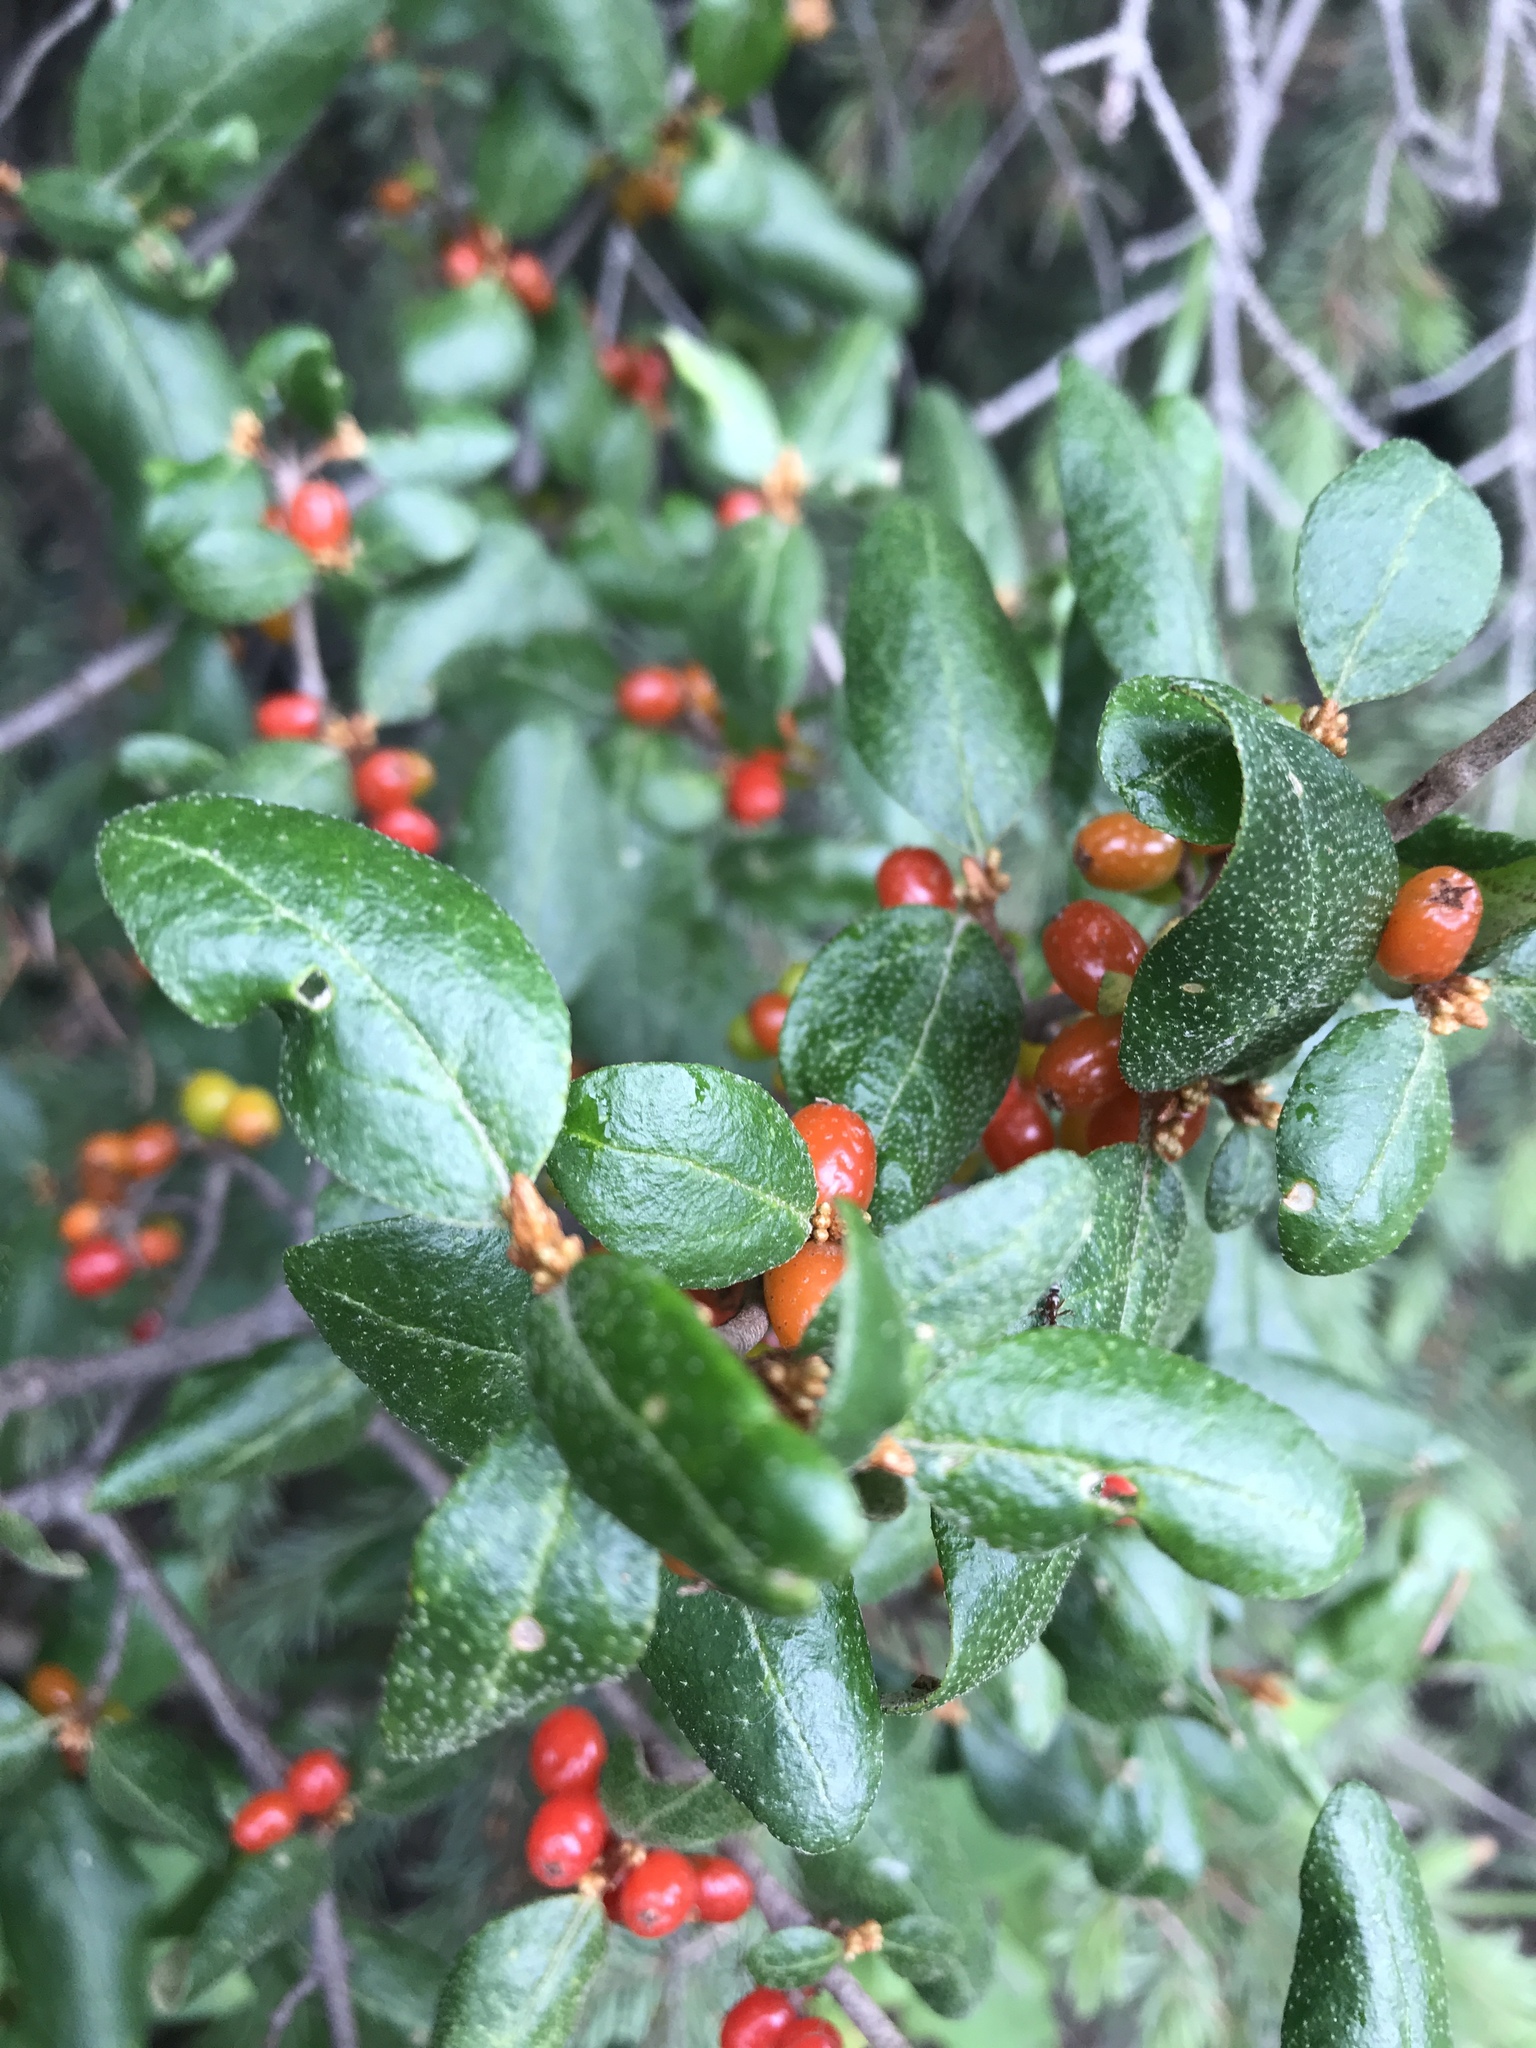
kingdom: Plantae
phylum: Tracheophyta
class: Magnoliopsida
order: Rosales
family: Elaeagnaceae
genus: Shepherdia
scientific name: Shepherdia canadensis
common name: Soapberry
